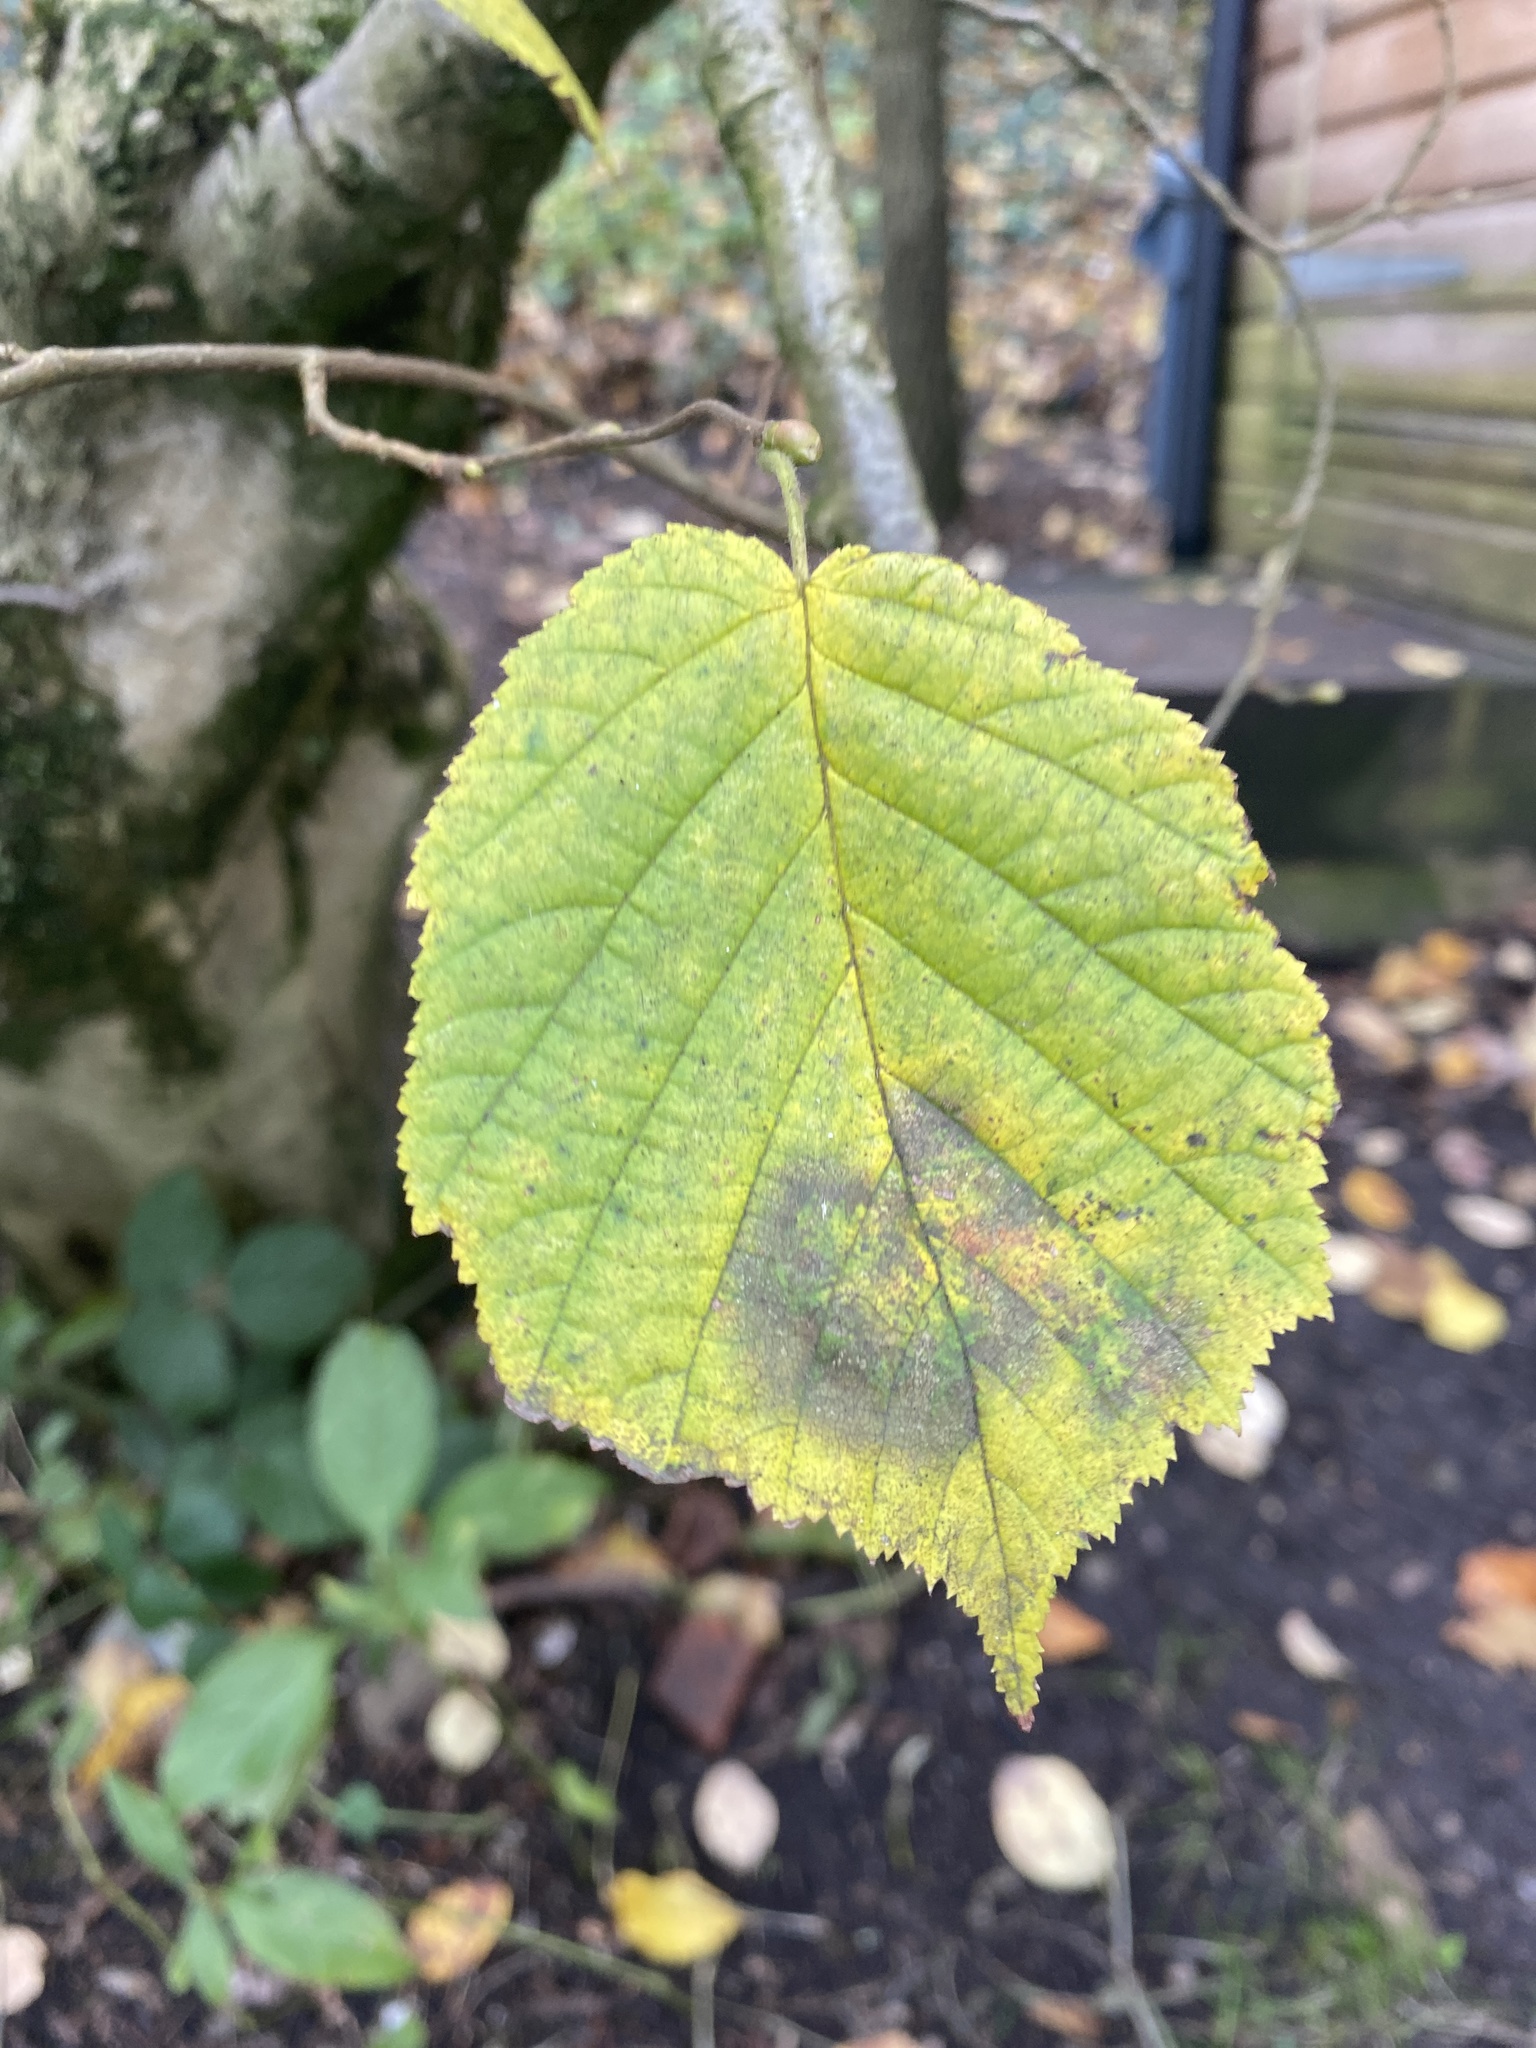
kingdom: Plantae
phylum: Tracheophyta
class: Magnoliopsida
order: Fagales
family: Betulaceae
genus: Corylus
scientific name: Corylus avellana
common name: European hazel
